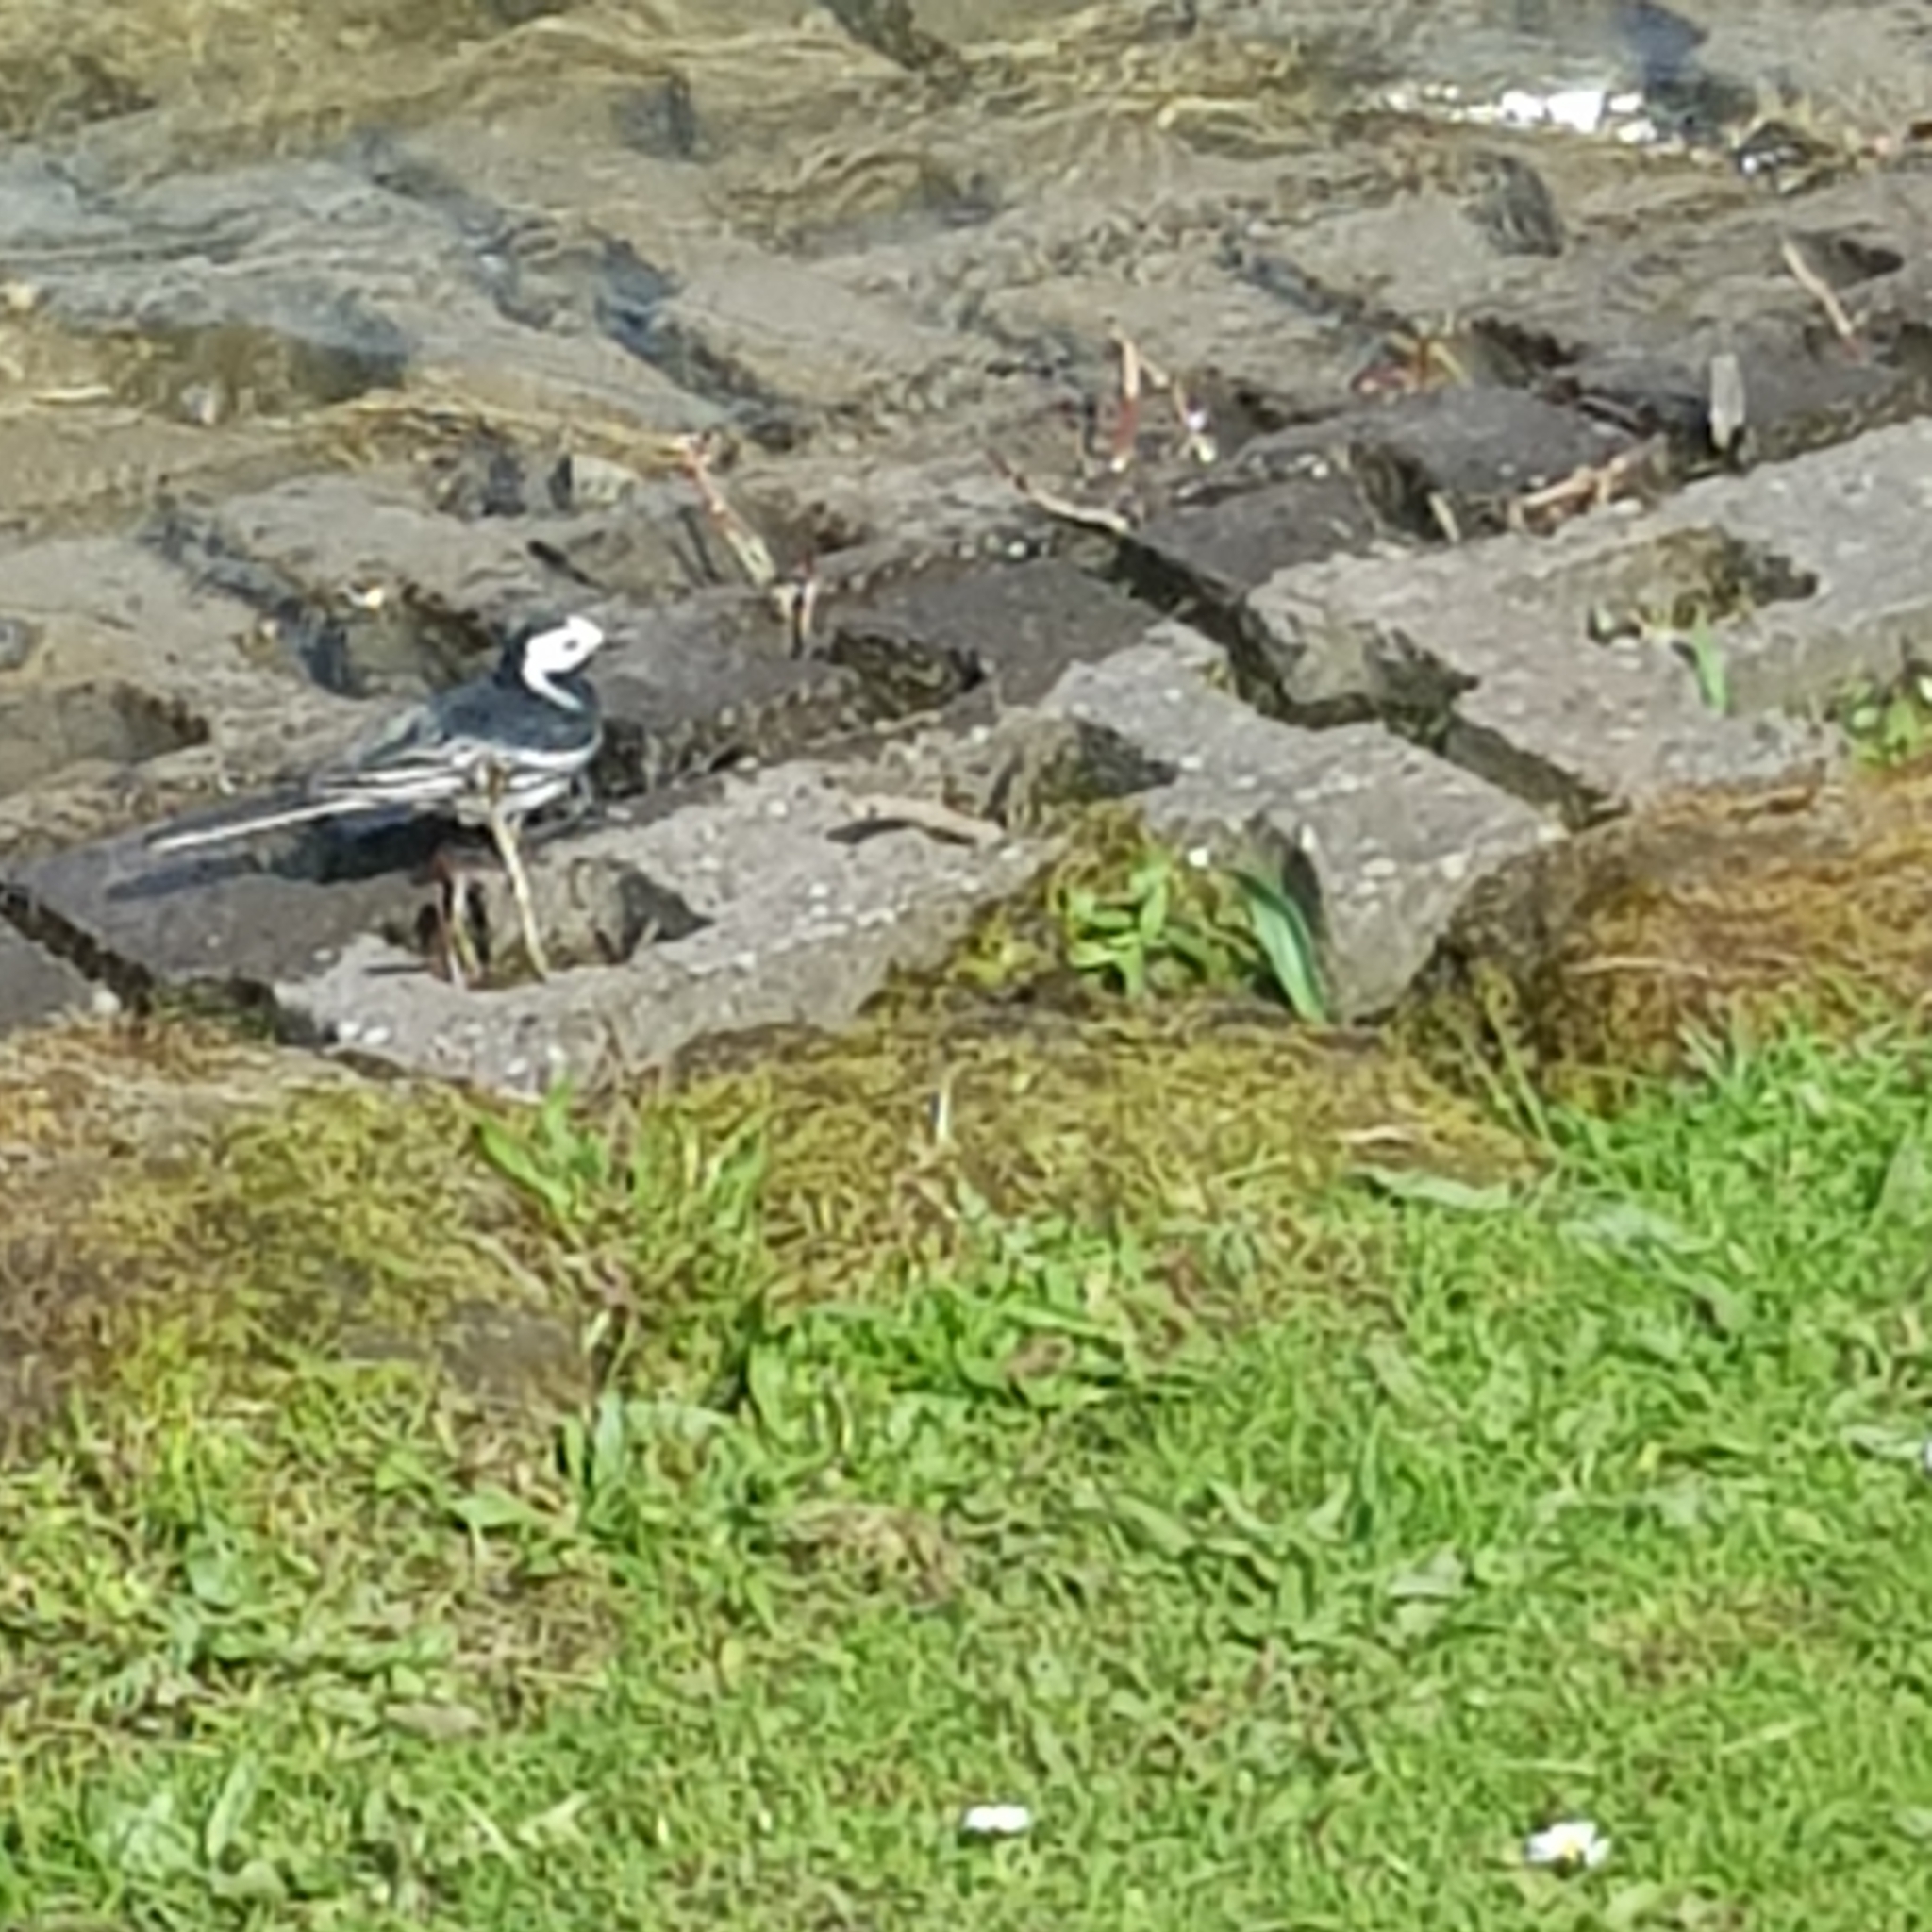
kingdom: Animalia
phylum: Chordata
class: Aves
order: Passeriformes
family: Motacillidae
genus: Motacilla
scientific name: Motacilla alba
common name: White wagtail
